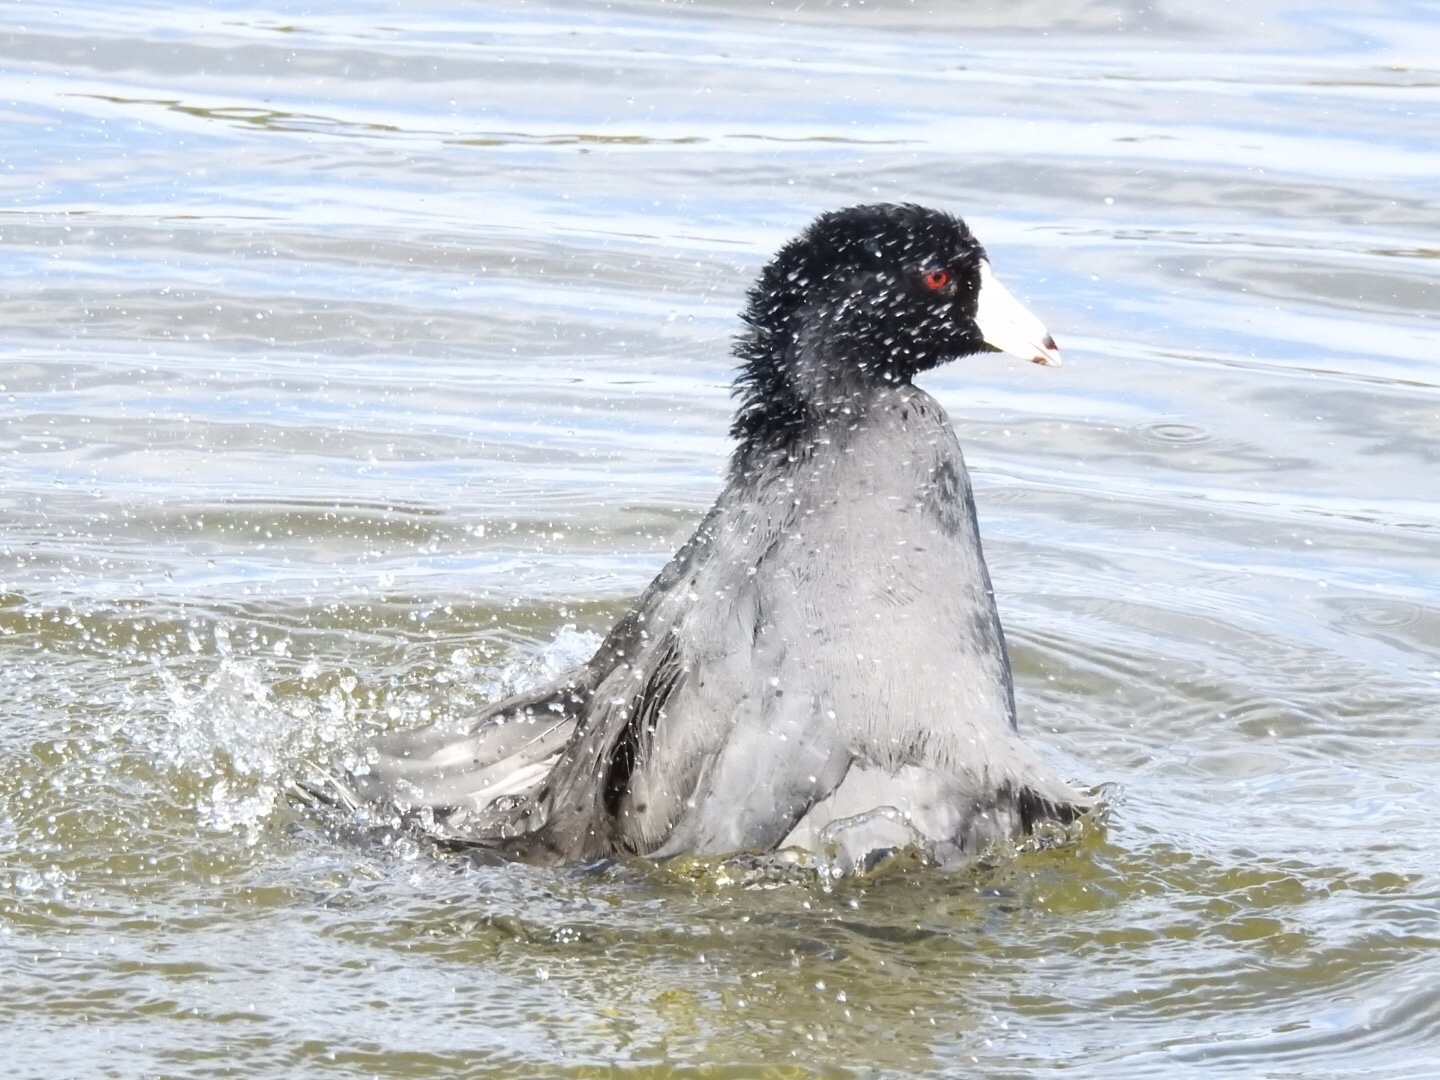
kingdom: Animalia
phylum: Chordata
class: Aves
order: Gruiformes
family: Rallidae
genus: Fulica
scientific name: Fulica americana
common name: American coot
